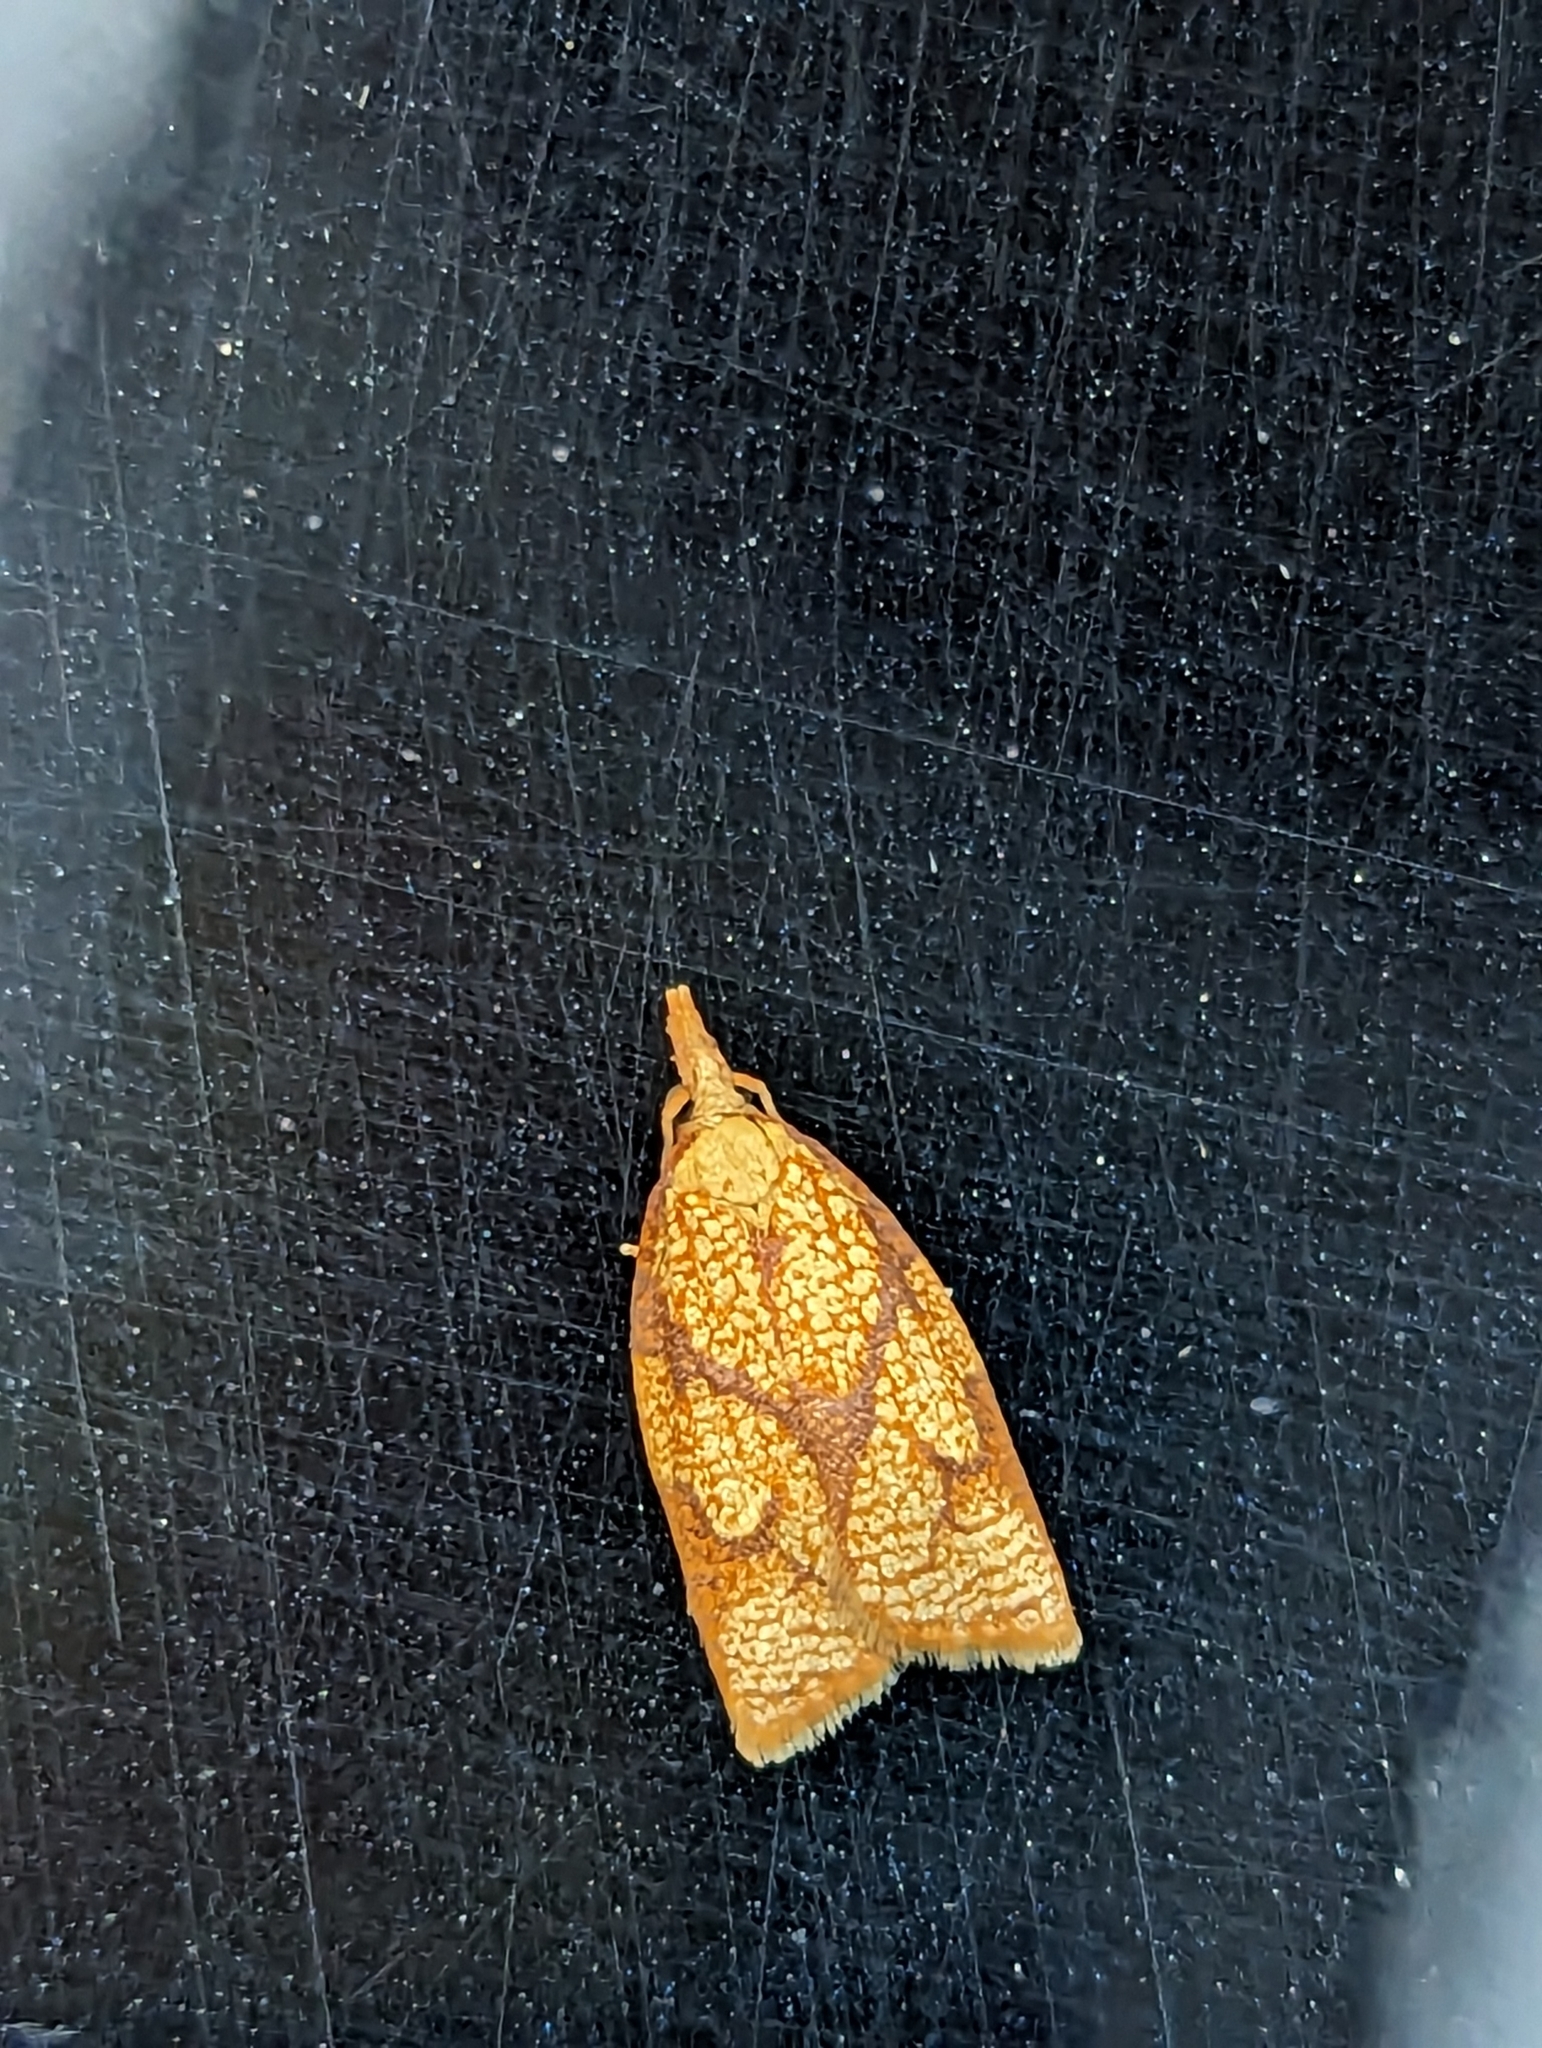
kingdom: Animalia
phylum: Arthropoda
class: Insecta
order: Lepidoptera
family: Tortricidae
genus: Cenopis
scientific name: Cenopis reticulatana
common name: Reticulated fruitworm moth
